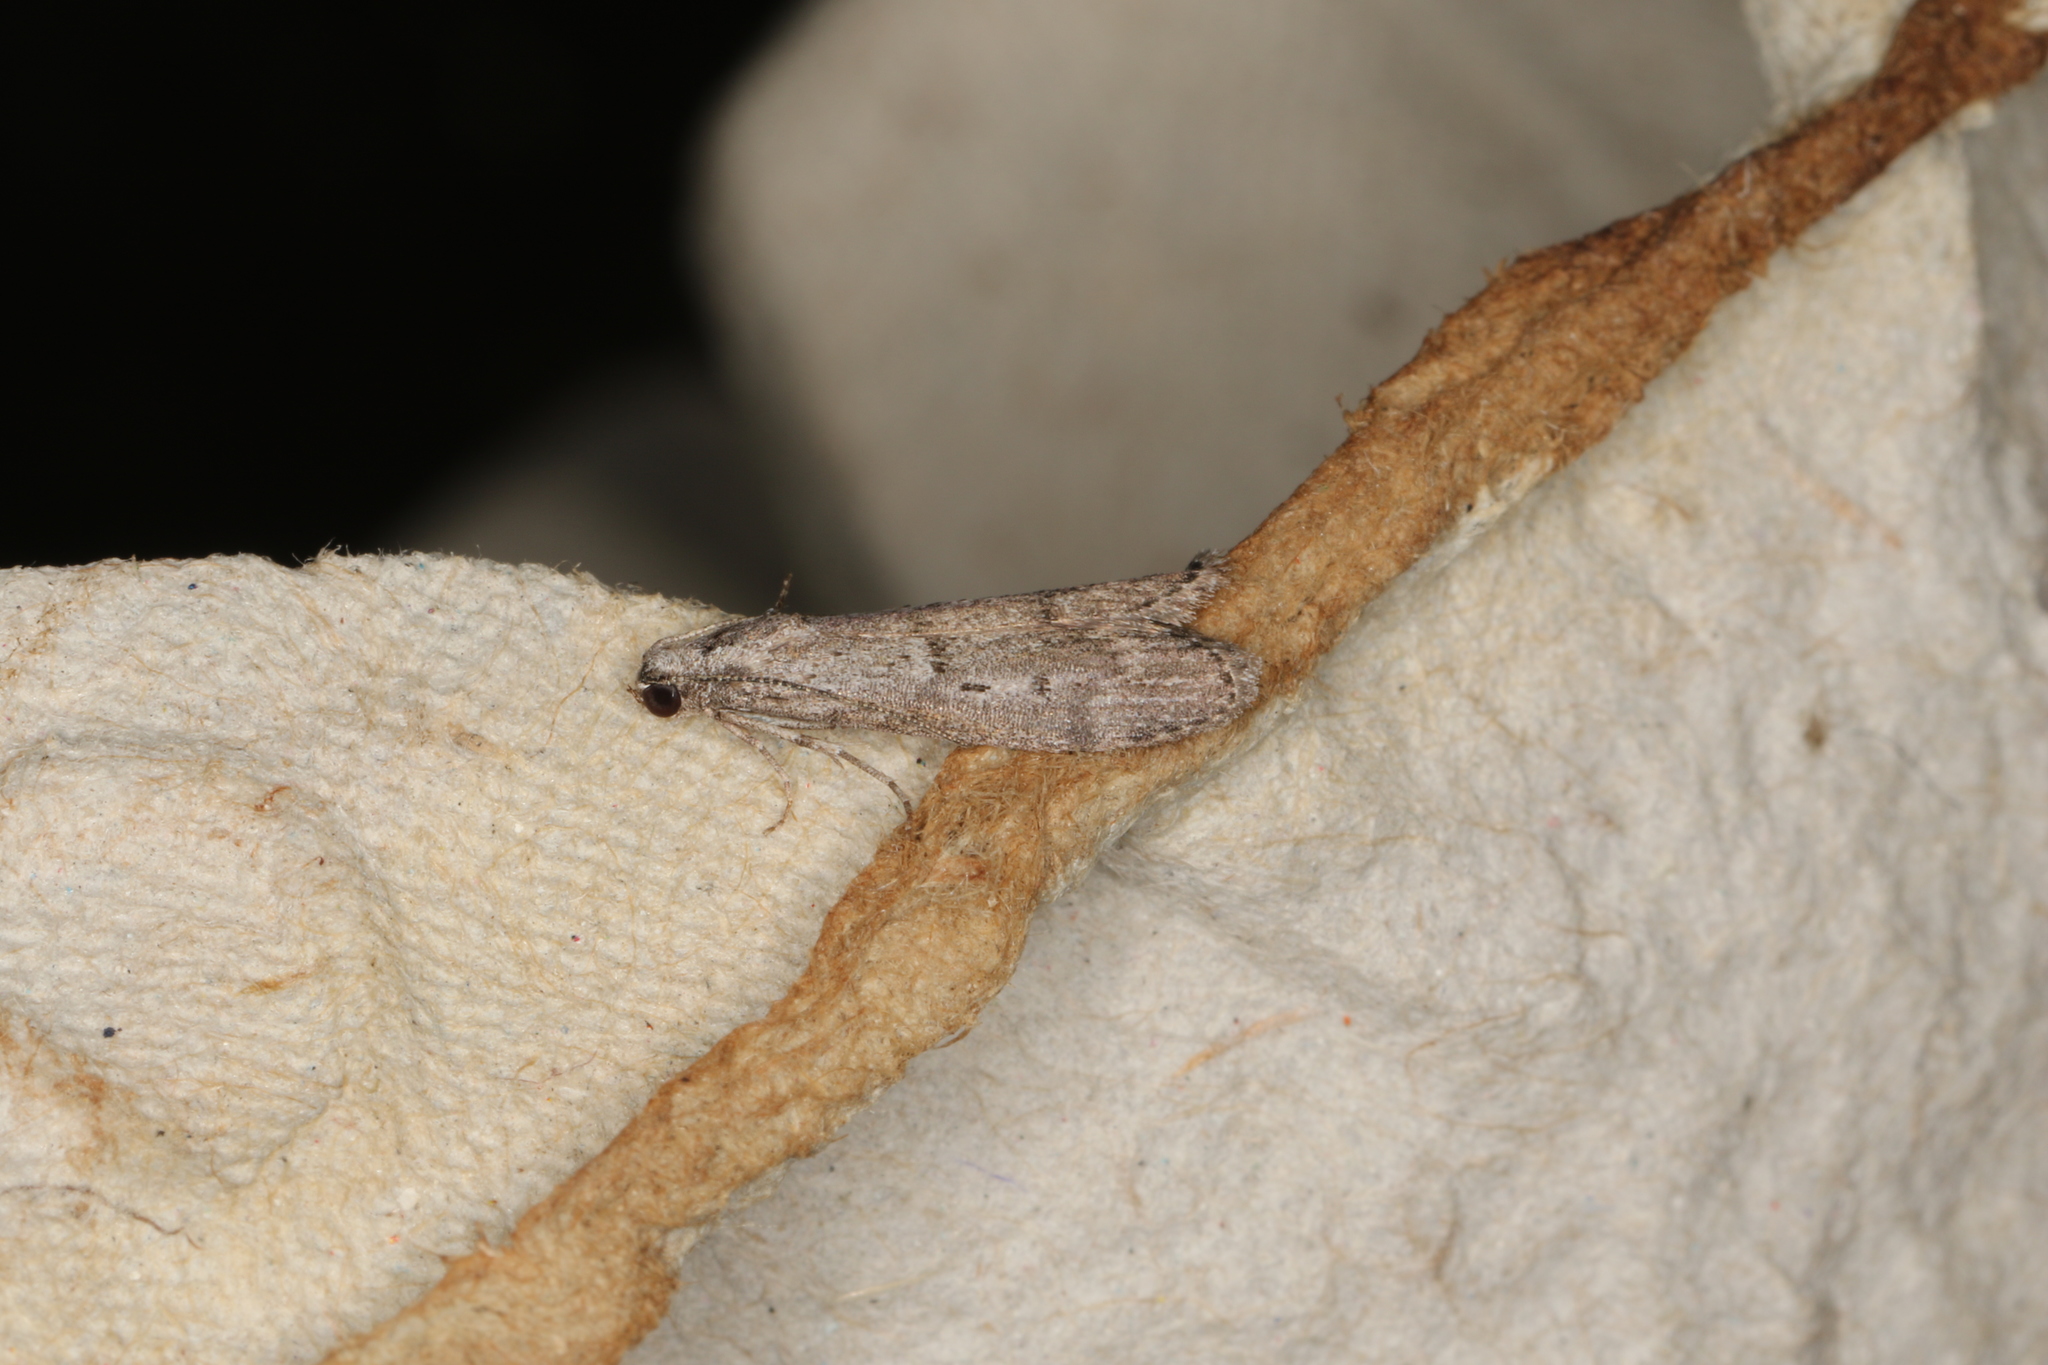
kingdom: Animalia
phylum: Arthropoda
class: Insecta
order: Lepidoptera
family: Pyralidae
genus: Heteromicta
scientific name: Heteromicta pachytera
